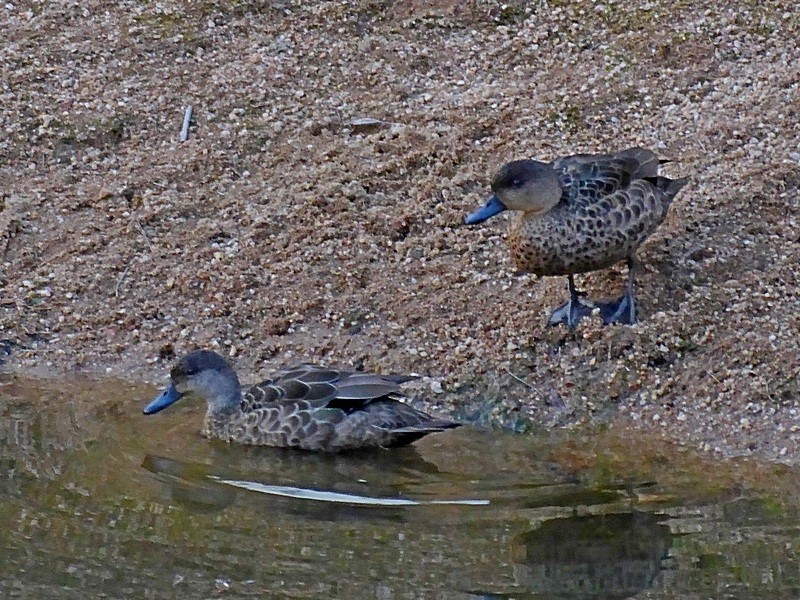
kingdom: Animalia
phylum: Chordata
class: Aves
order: Anseriformes
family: Anatidae
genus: Anas
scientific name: Anas gracilis
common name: Grey teal
